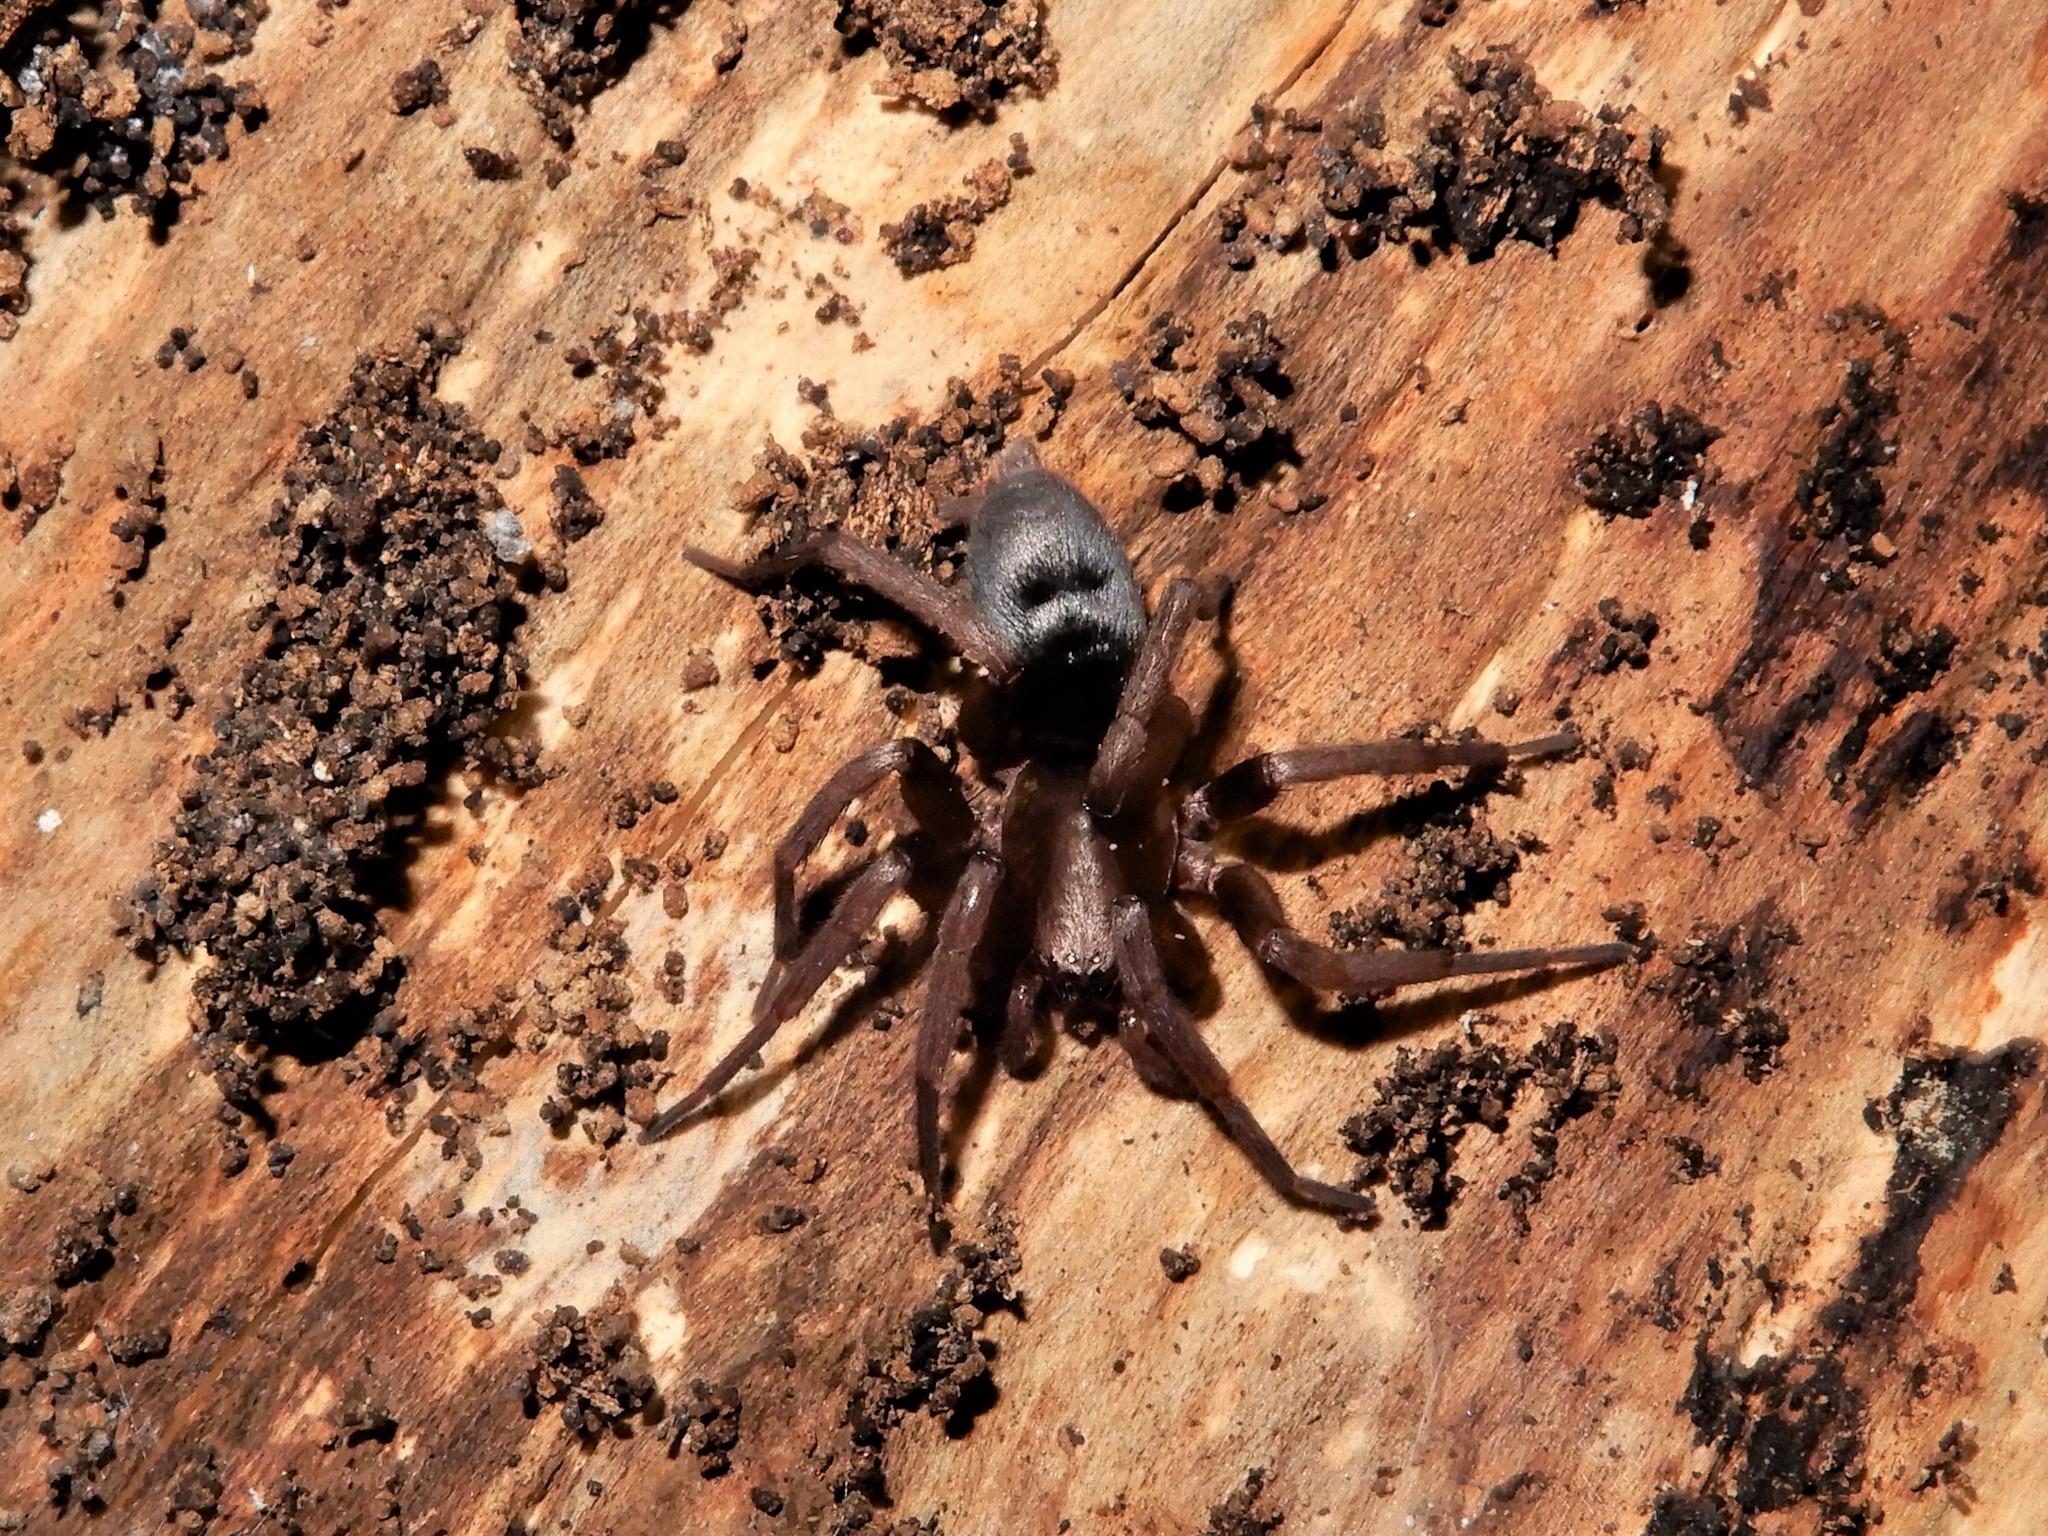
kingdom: Animalia
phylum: Arthropoda
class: Arachnida
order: Araneae
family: Gnaphosidae
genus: Hypodrassodes
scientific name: Hypodrassodes maoricus
